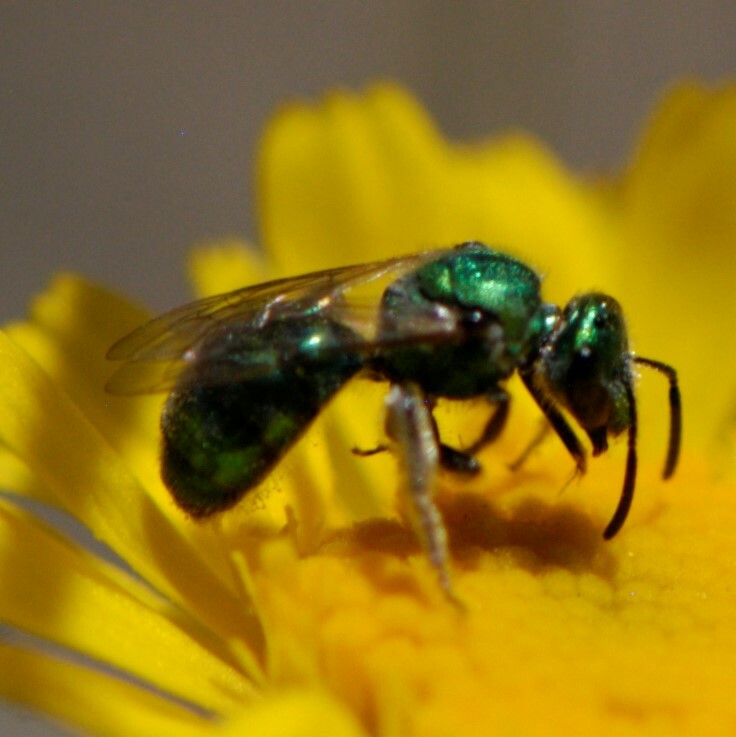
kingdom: Animalia
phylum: Arthropoda
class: Insecta
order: Hymenoptera
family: Halictidae
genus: Augochlorella
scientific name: Augochlorella
